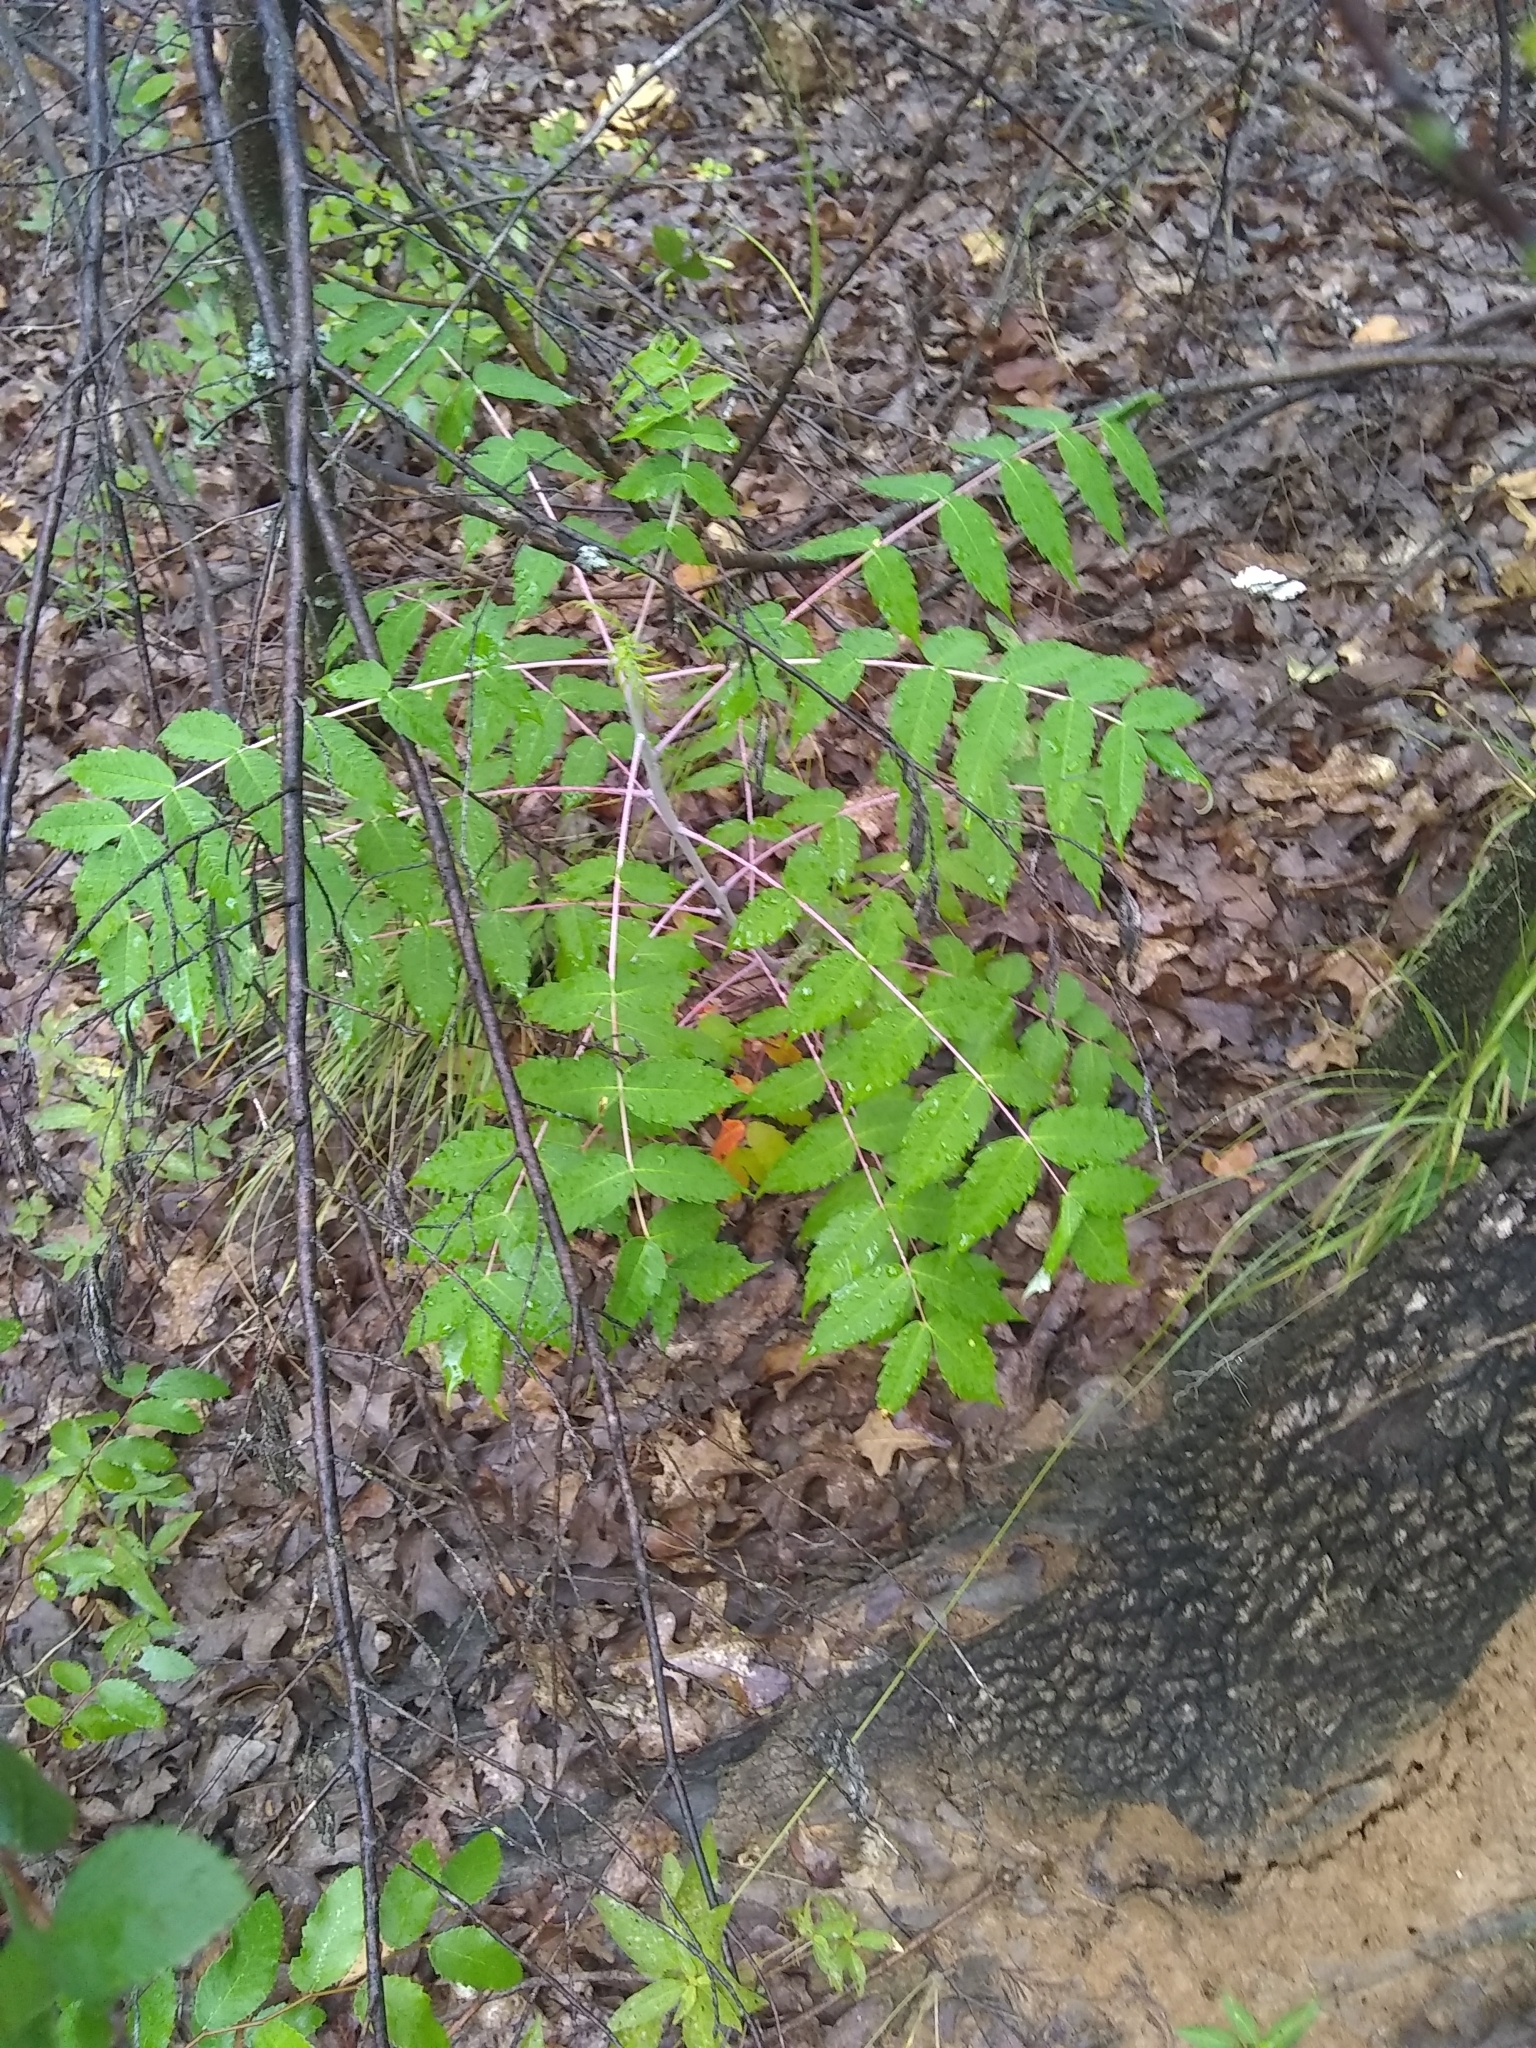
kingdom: Plantae
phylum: Tracheophyta
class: Magnoliopsida
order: Sapindales
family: Anacardiaceae
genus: Rhus
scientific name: Rhus glabra
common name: Scarlet sumac
